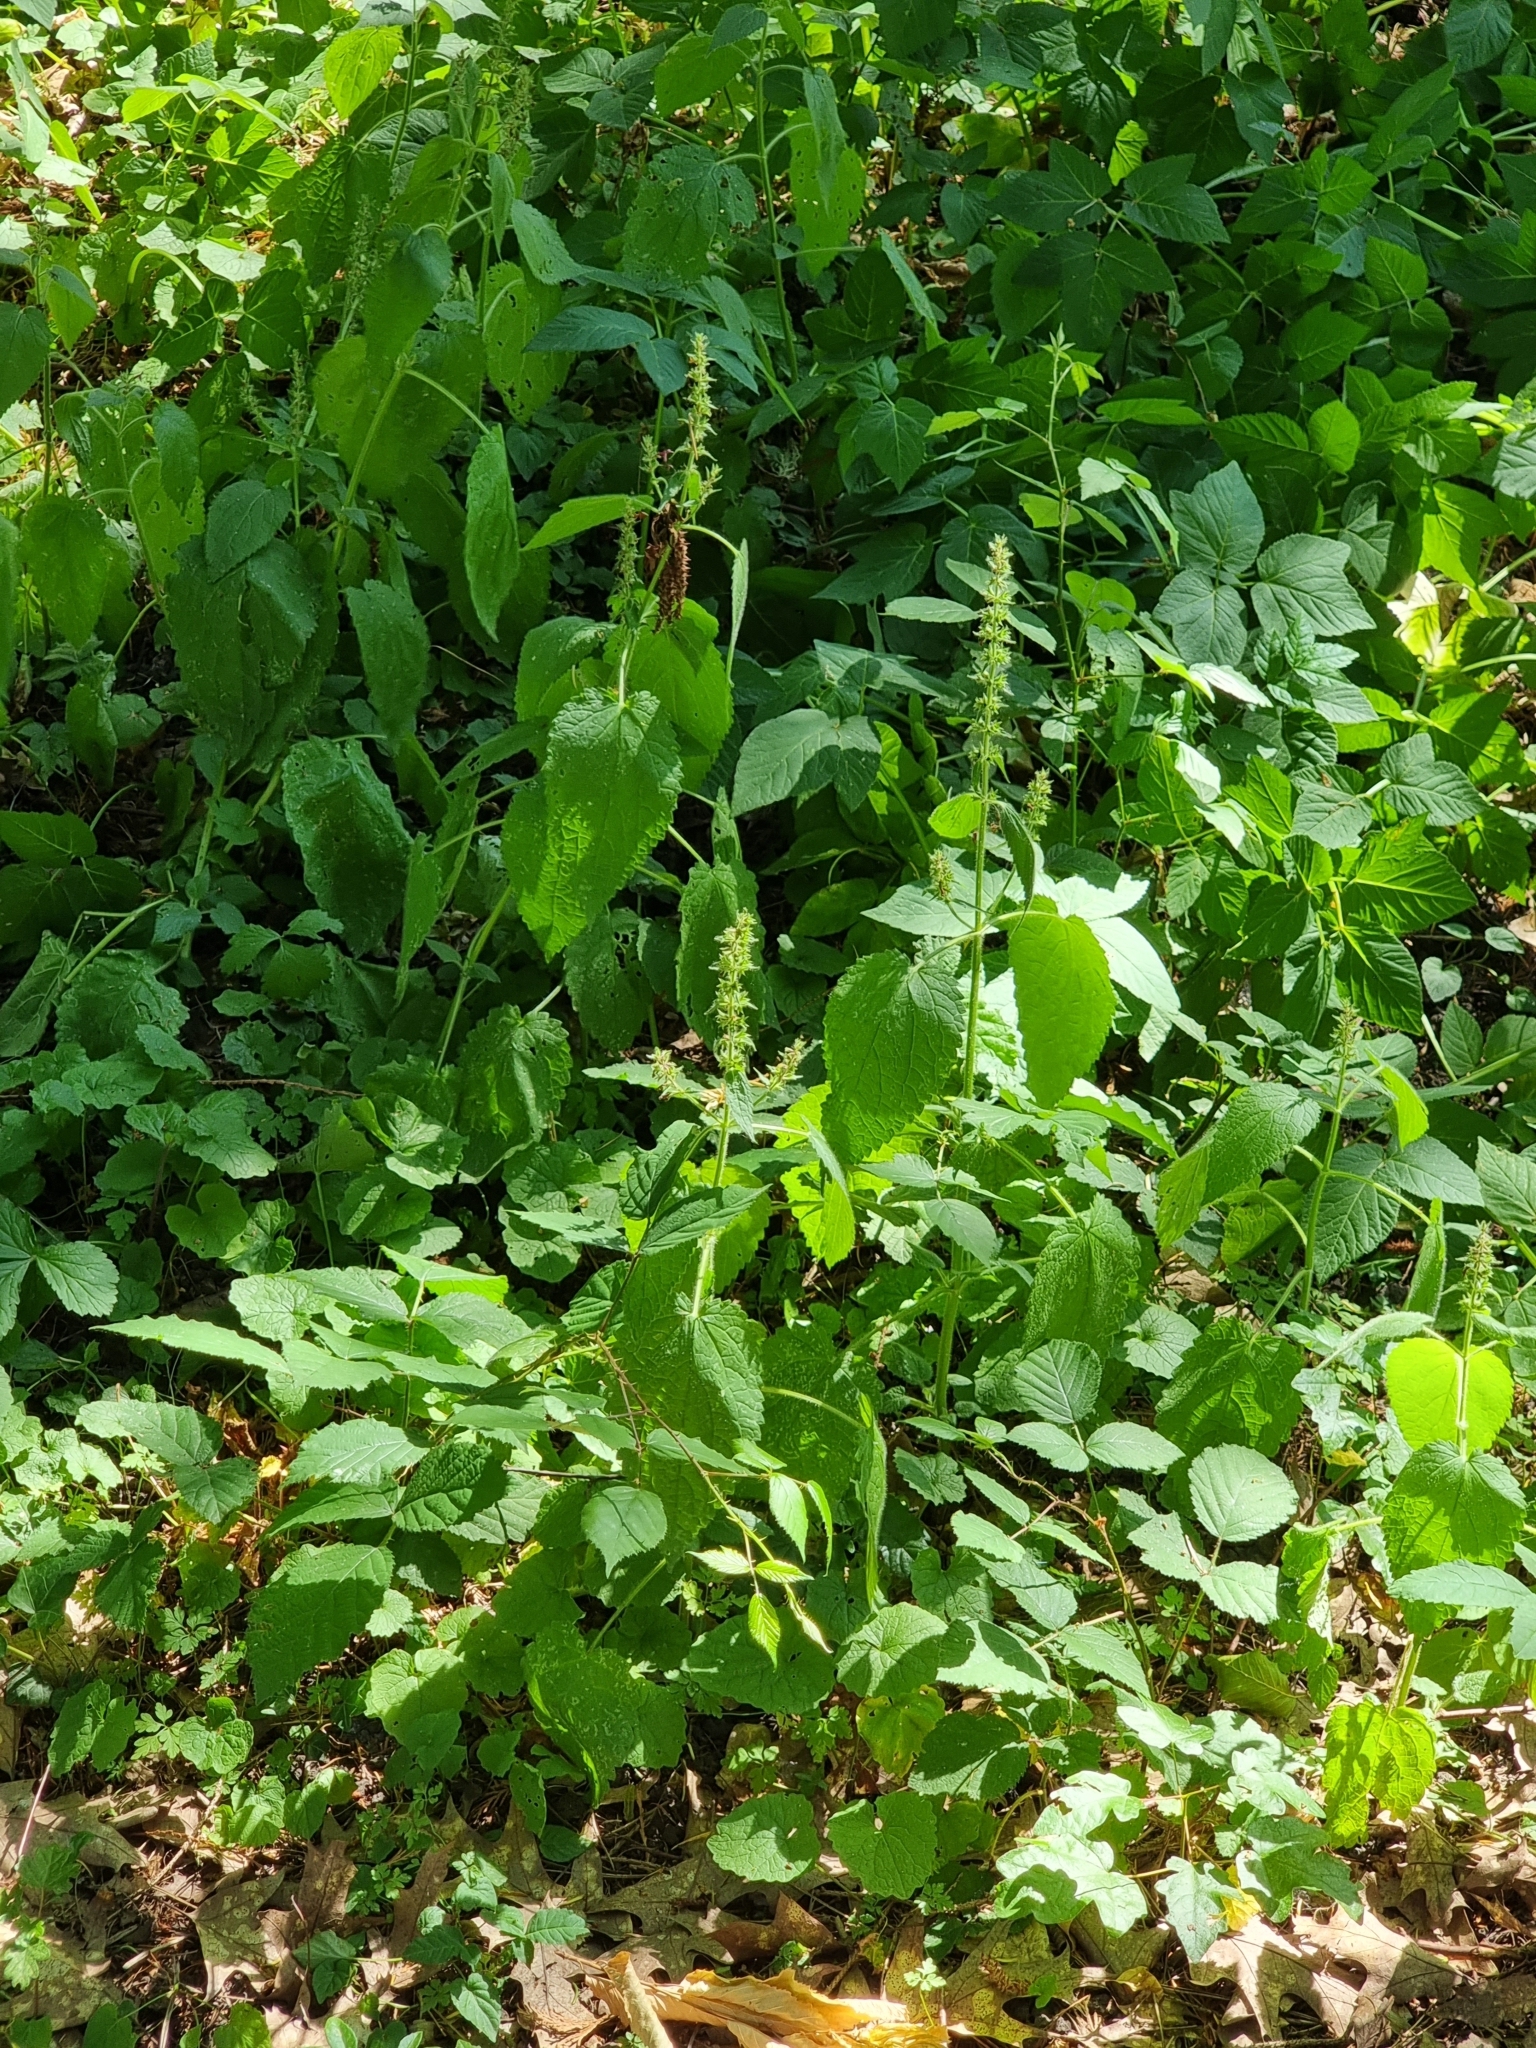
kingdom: Plantae
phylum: Tracheophyta
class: Magnoliopsida
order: Lamiales
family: Lamiaceae
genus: Stachys
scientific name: Stachys sylvatica
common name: Hedge woundwort
